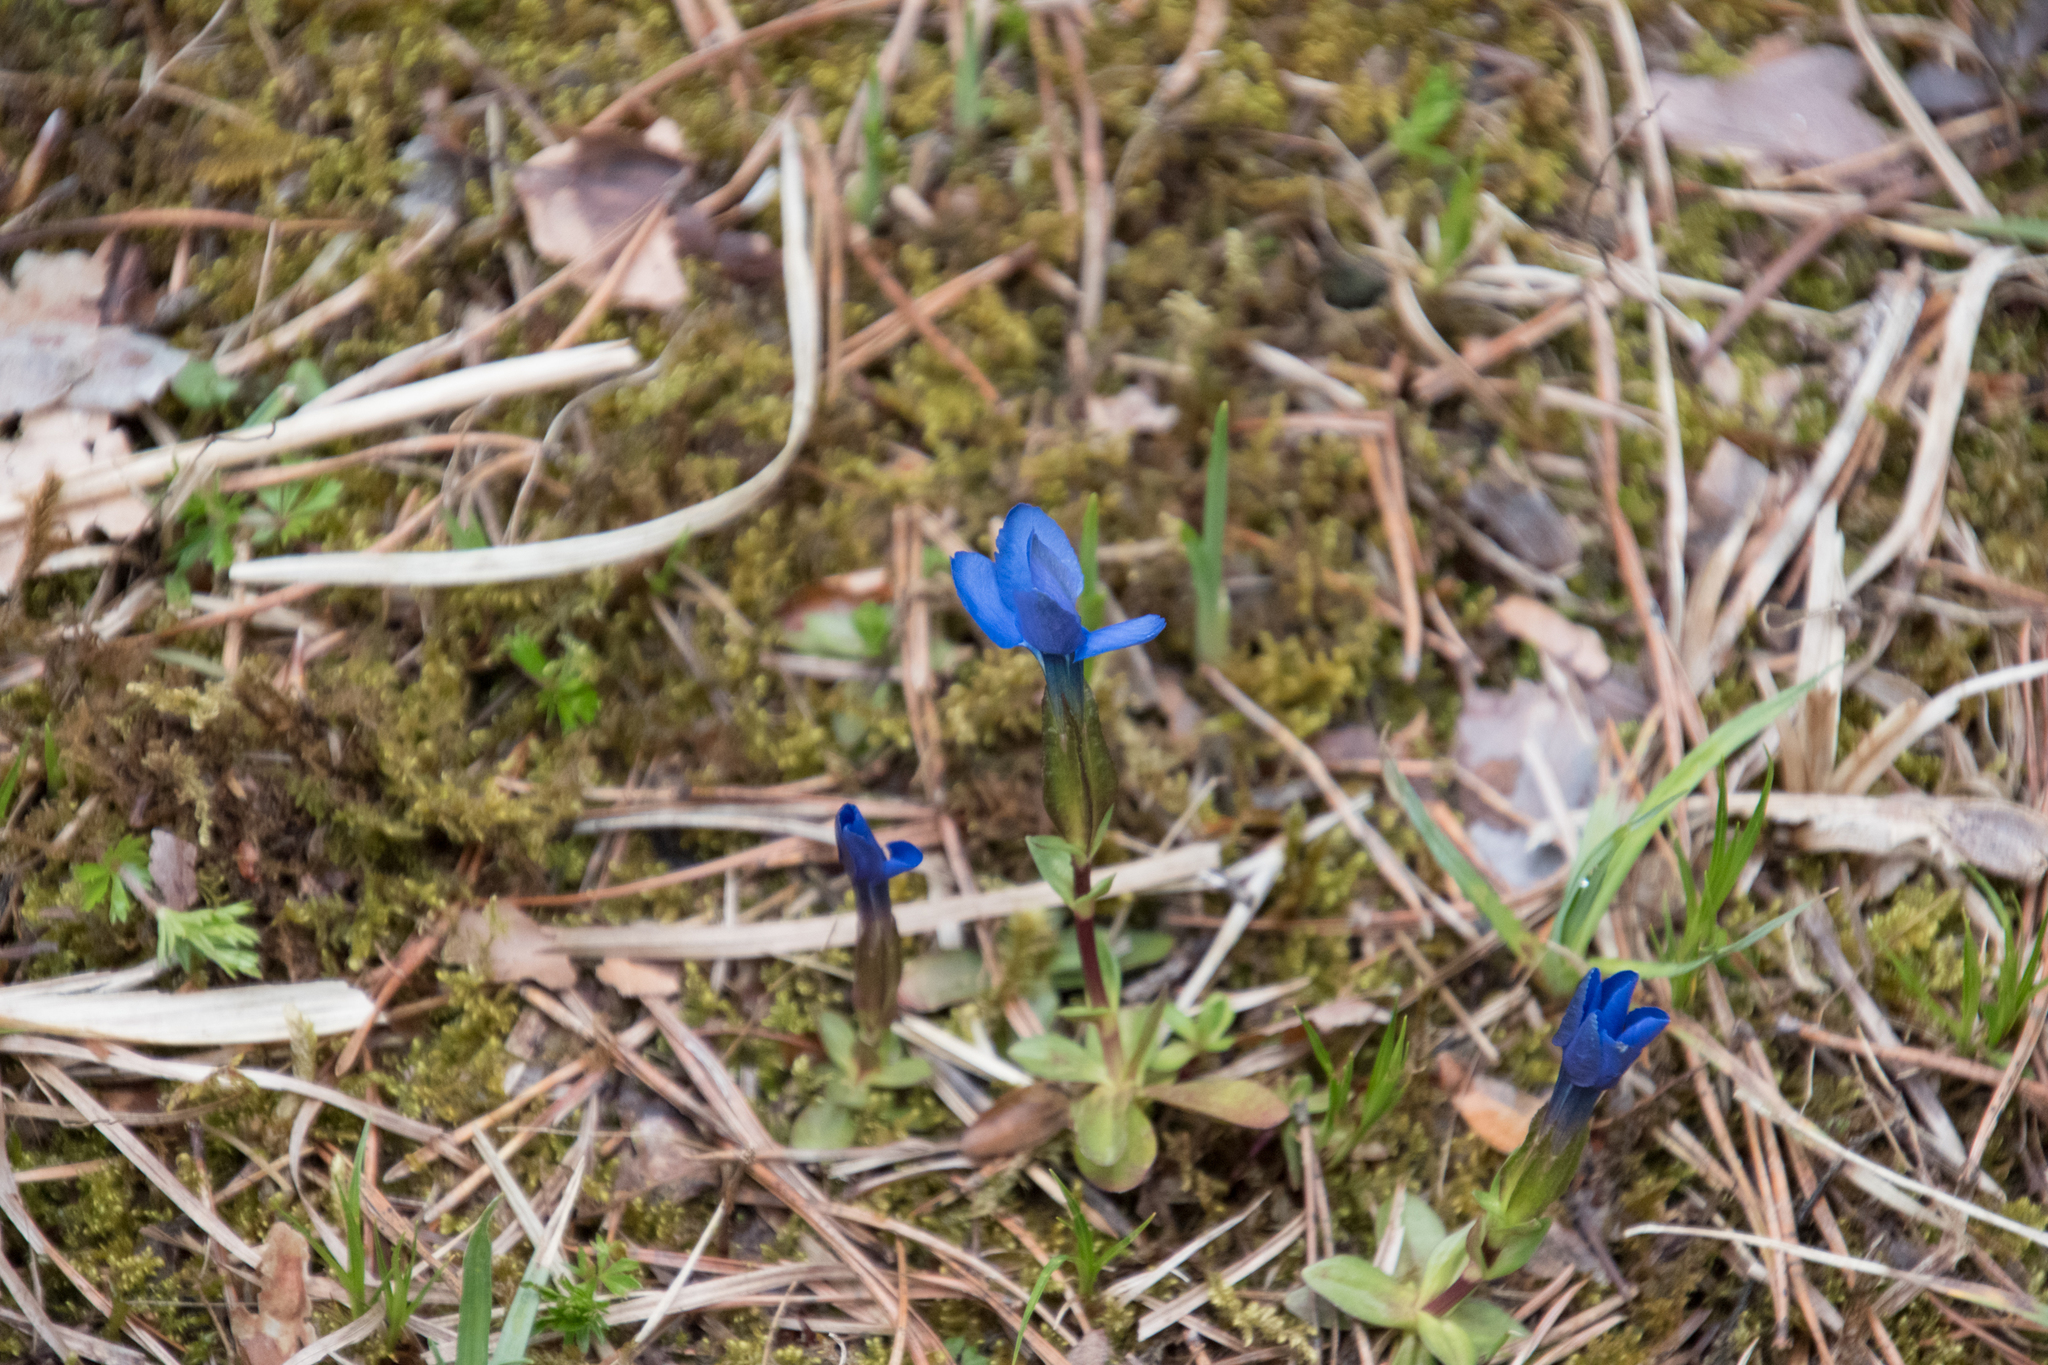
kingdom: Plantae
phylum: Tracheophyta
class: Magnoliopsida
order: Gentianales
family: Gentianaceae
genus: Gentiana
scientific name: Gentiana verna
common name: Spring gentian
